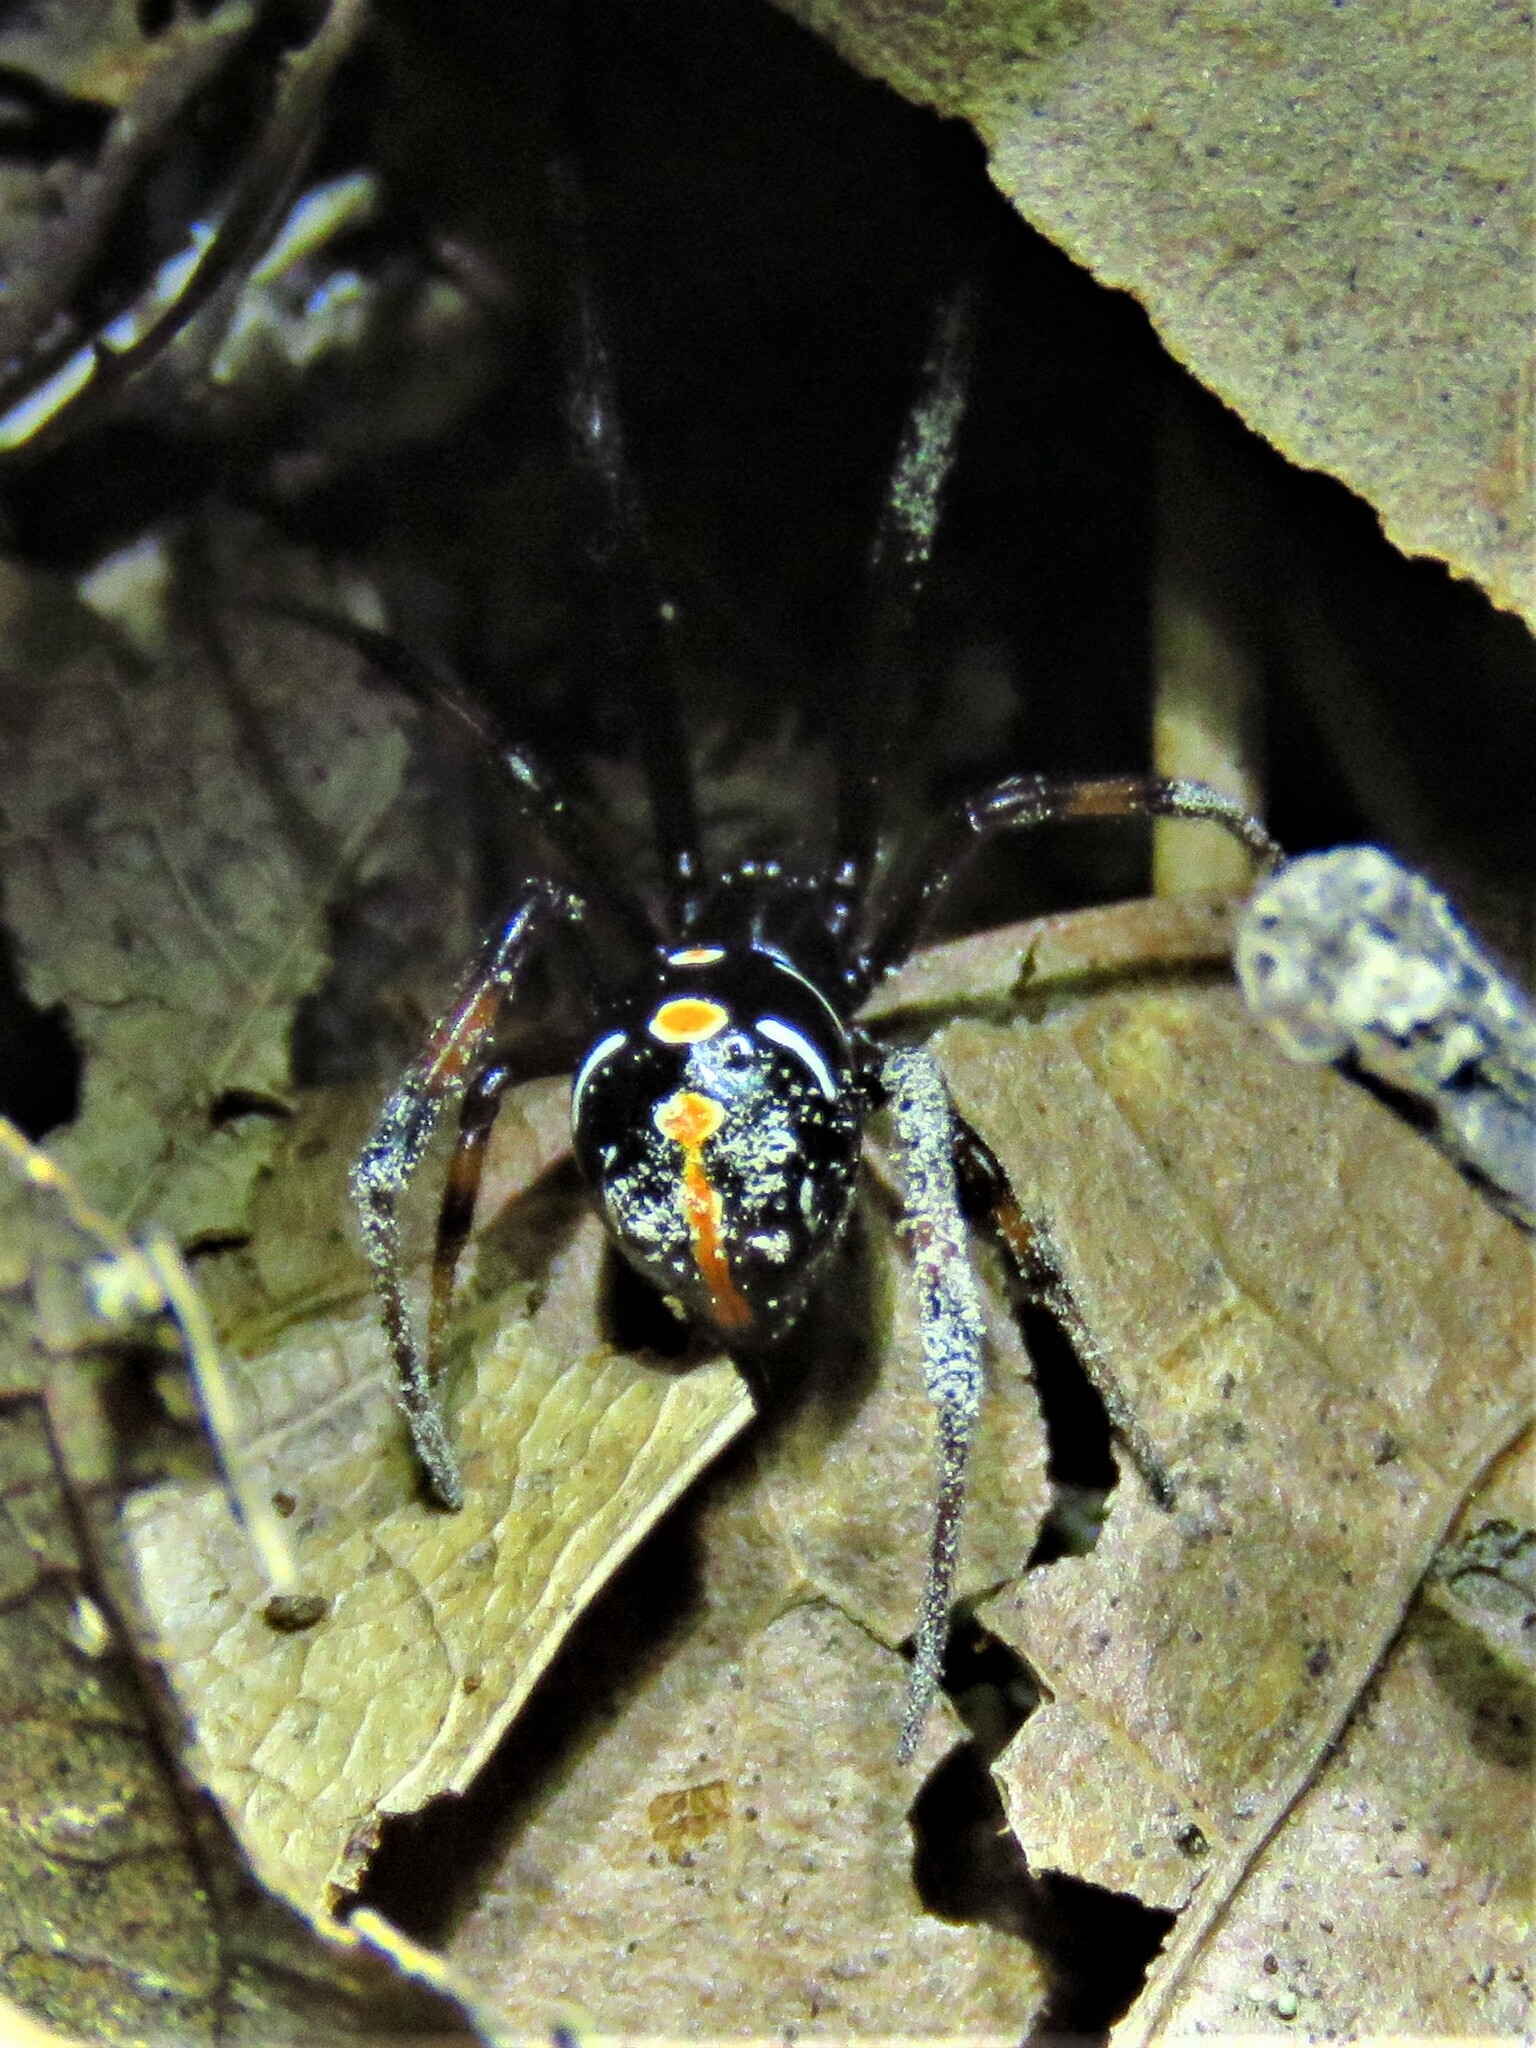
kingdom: Animalia
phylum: Arthropoda
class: Arachnida
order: Araneae
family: Theridiidae
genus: Latrodectus
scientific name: Latrodectus variolus
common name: Northern black widow
